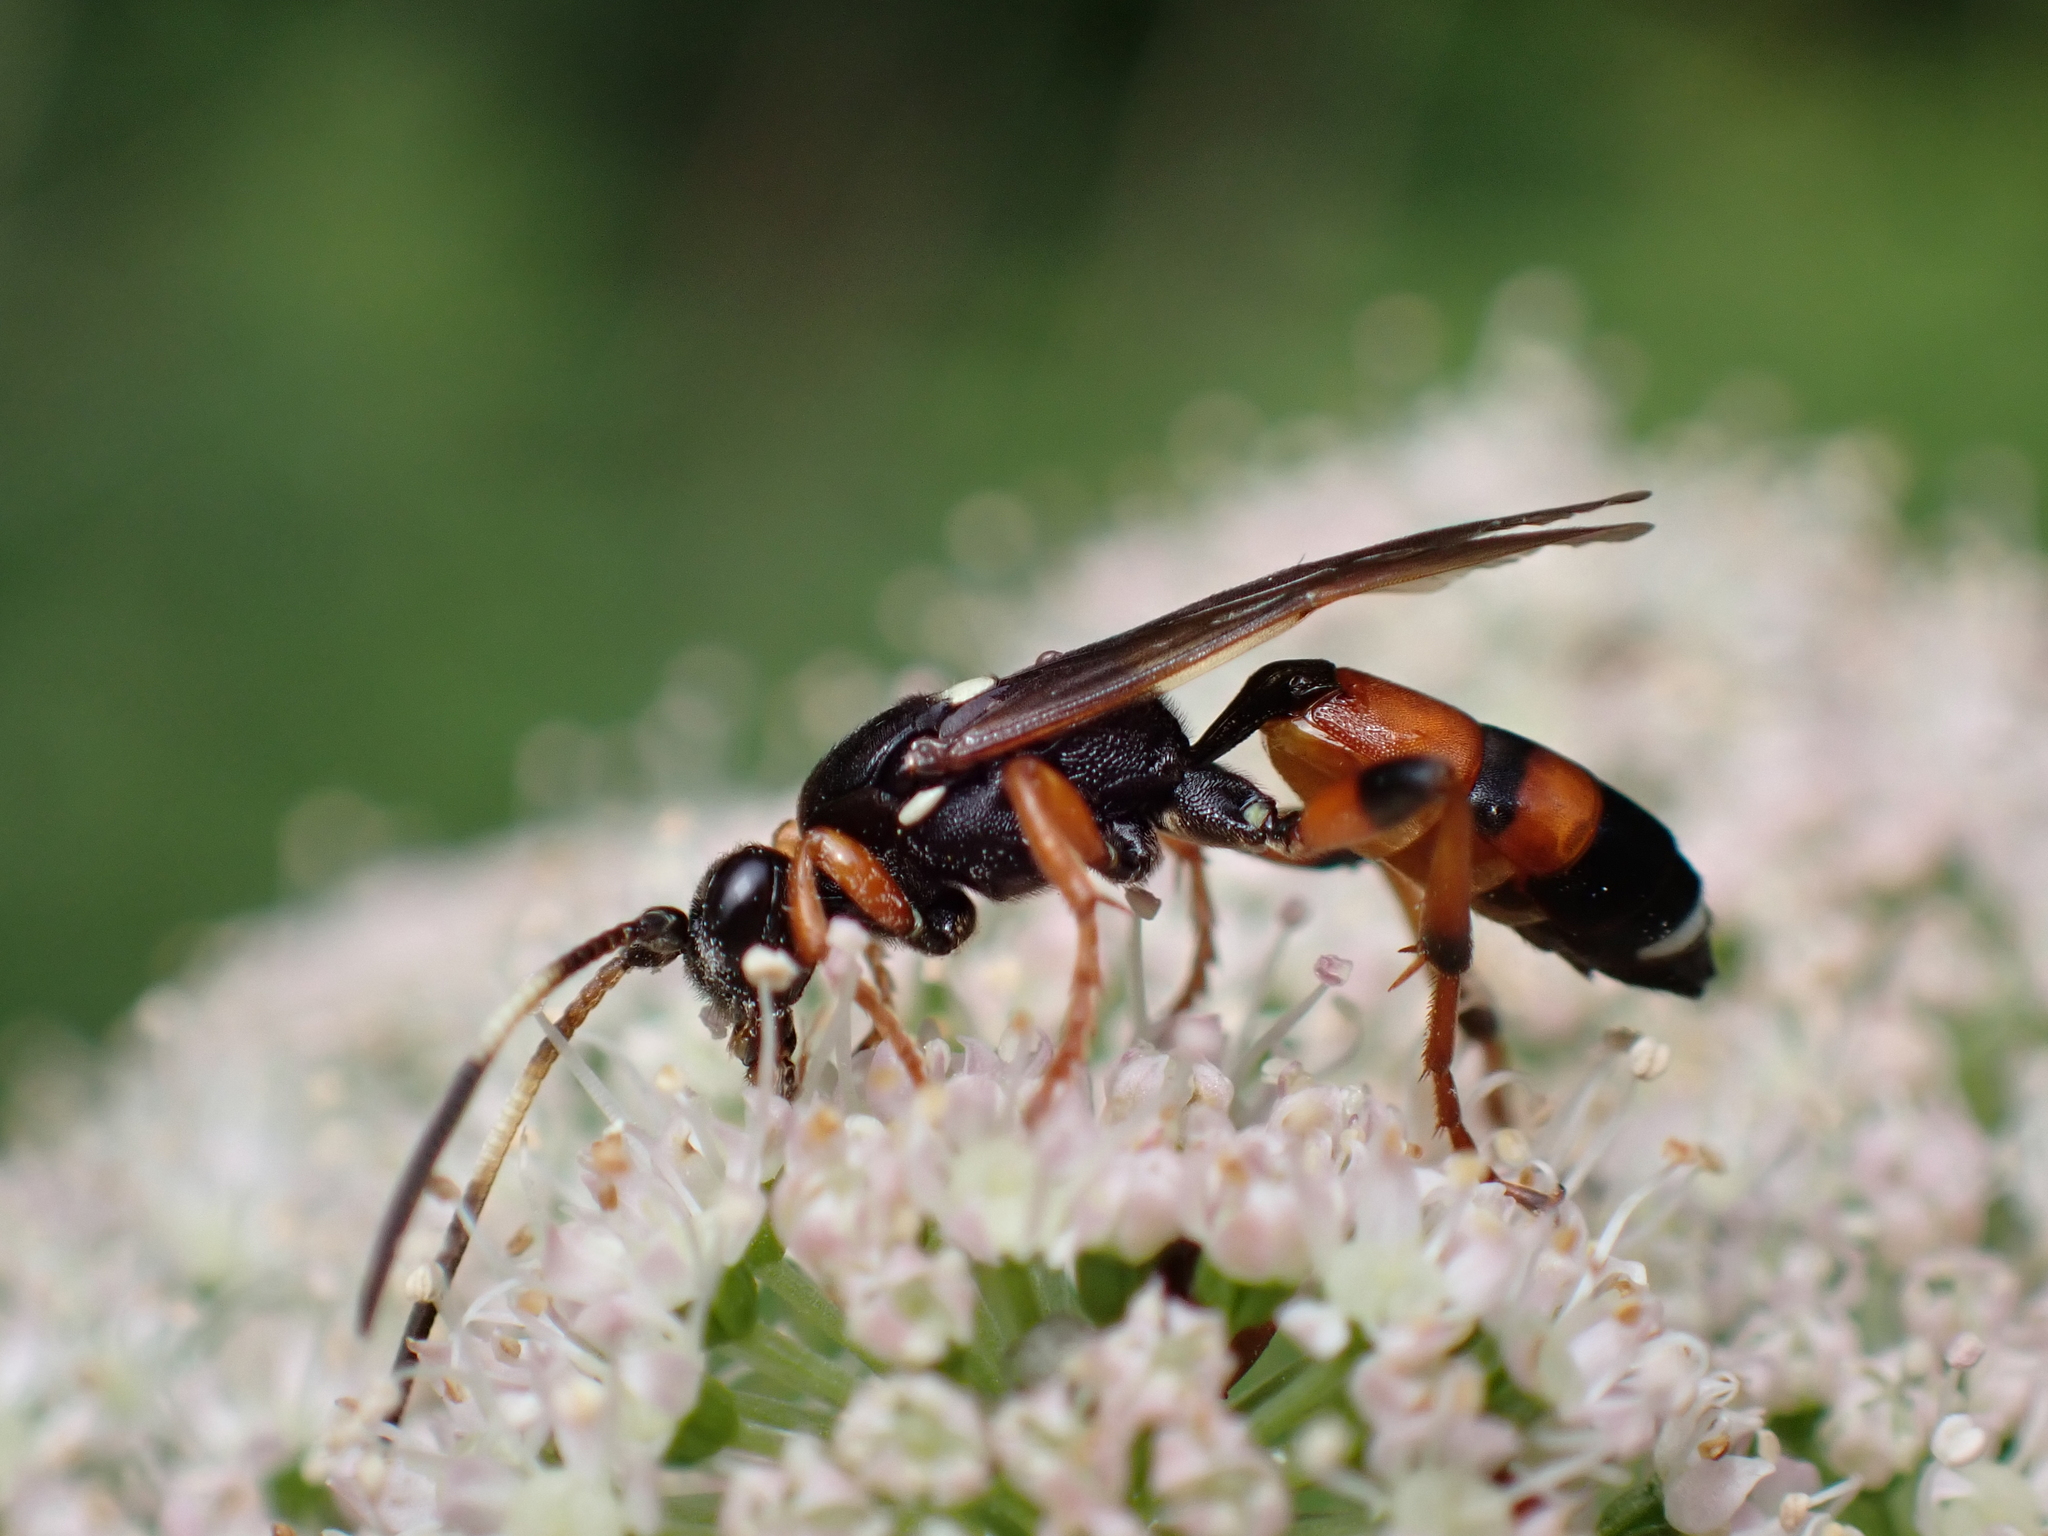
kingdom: Animalia
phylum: Arthropoda
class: Insecta
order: Hymenoptera
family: Ichneumonidae
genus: Ichneumon
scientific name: Ichneumon sarcitorius
